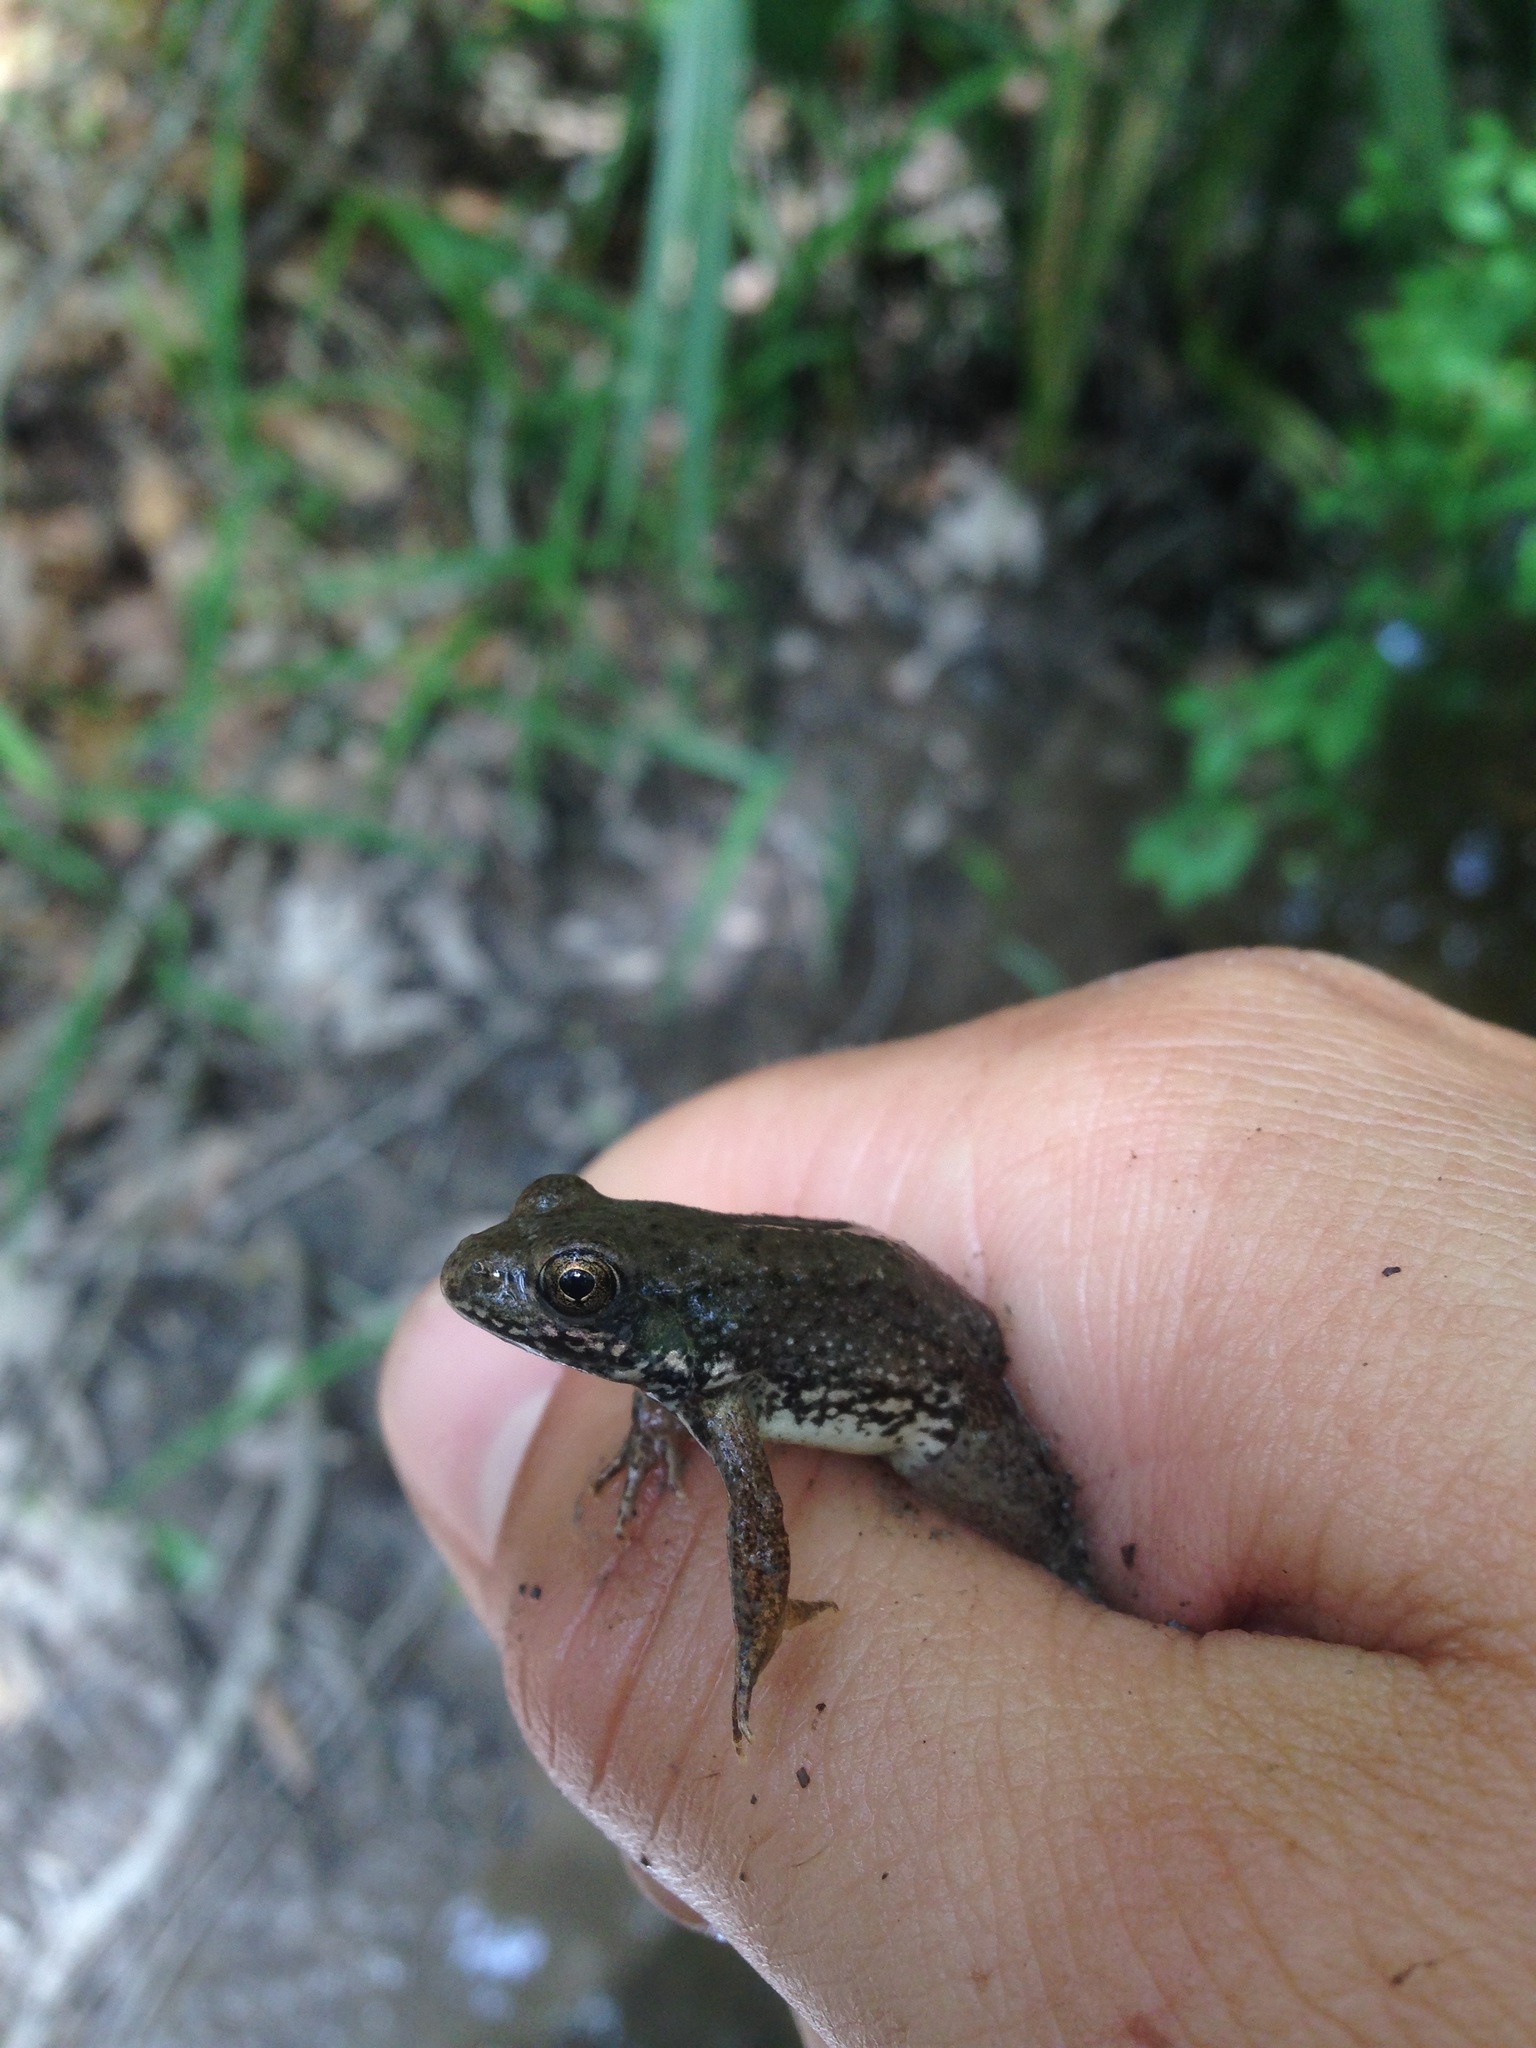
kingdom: Animalia
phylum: Chordata
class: Amphibia
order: Anura
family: Ranidae
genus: Lithobates
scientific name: Lithobates clamitans
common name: Green frog
